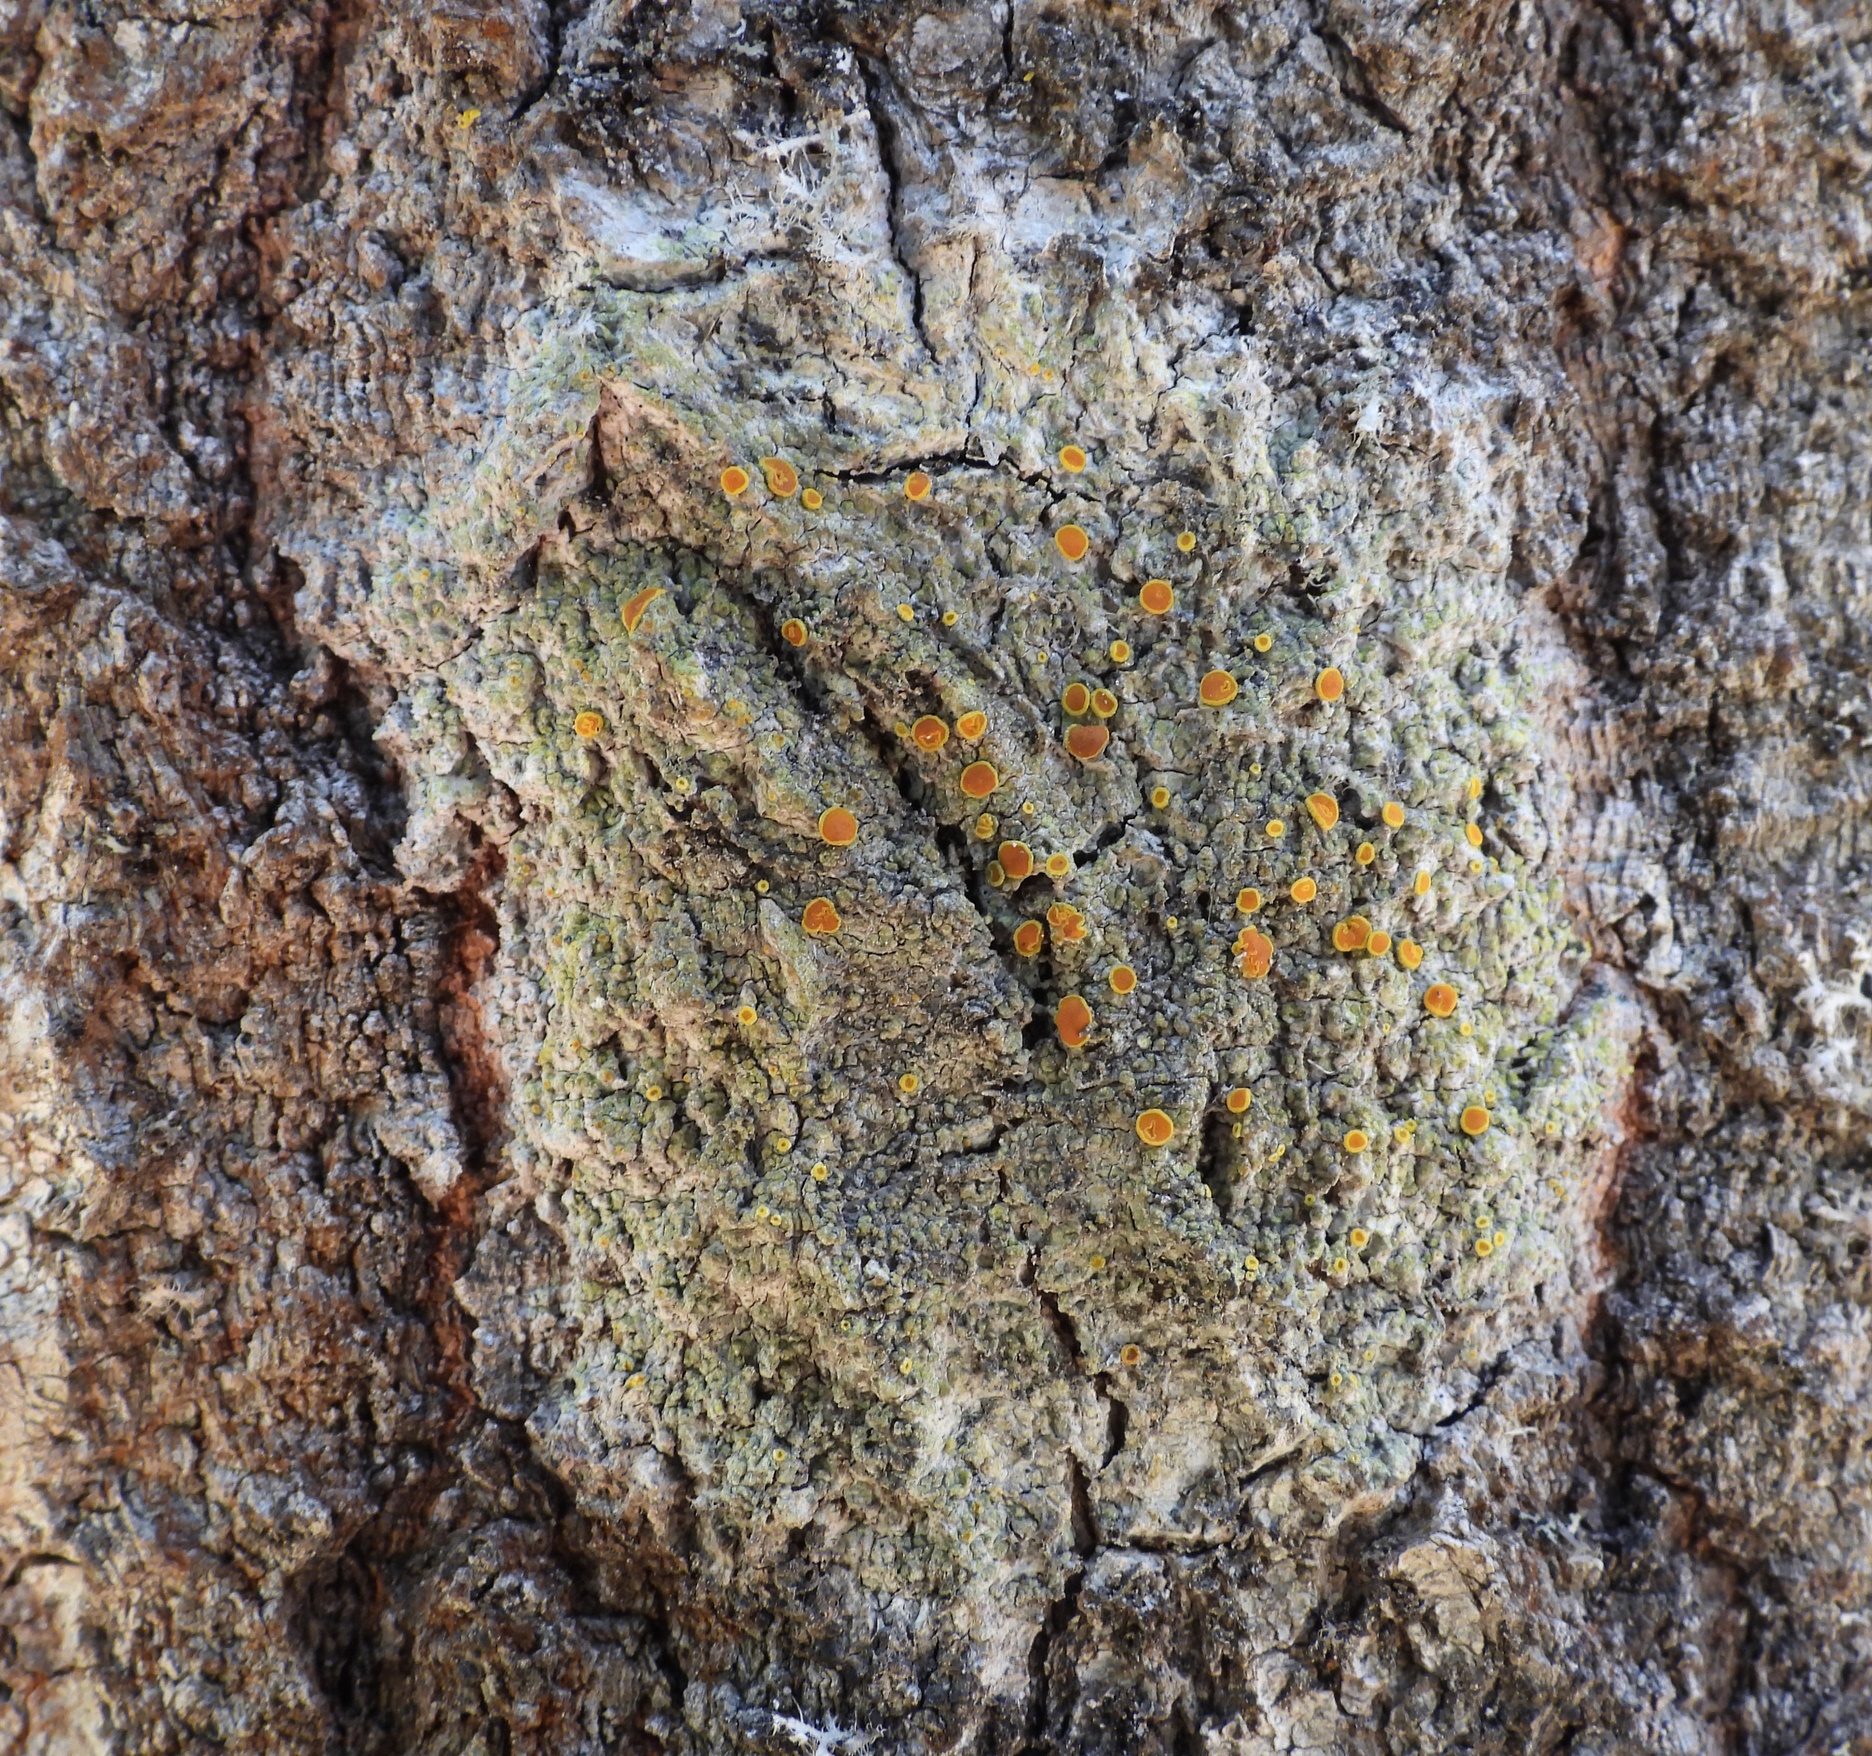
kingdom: Fungi
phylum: Ascomycota
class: Lecanoromycetes
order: Teloschistales
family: Teloschistaceae
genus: Opeltia
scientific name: Opeltia flavorubescens
